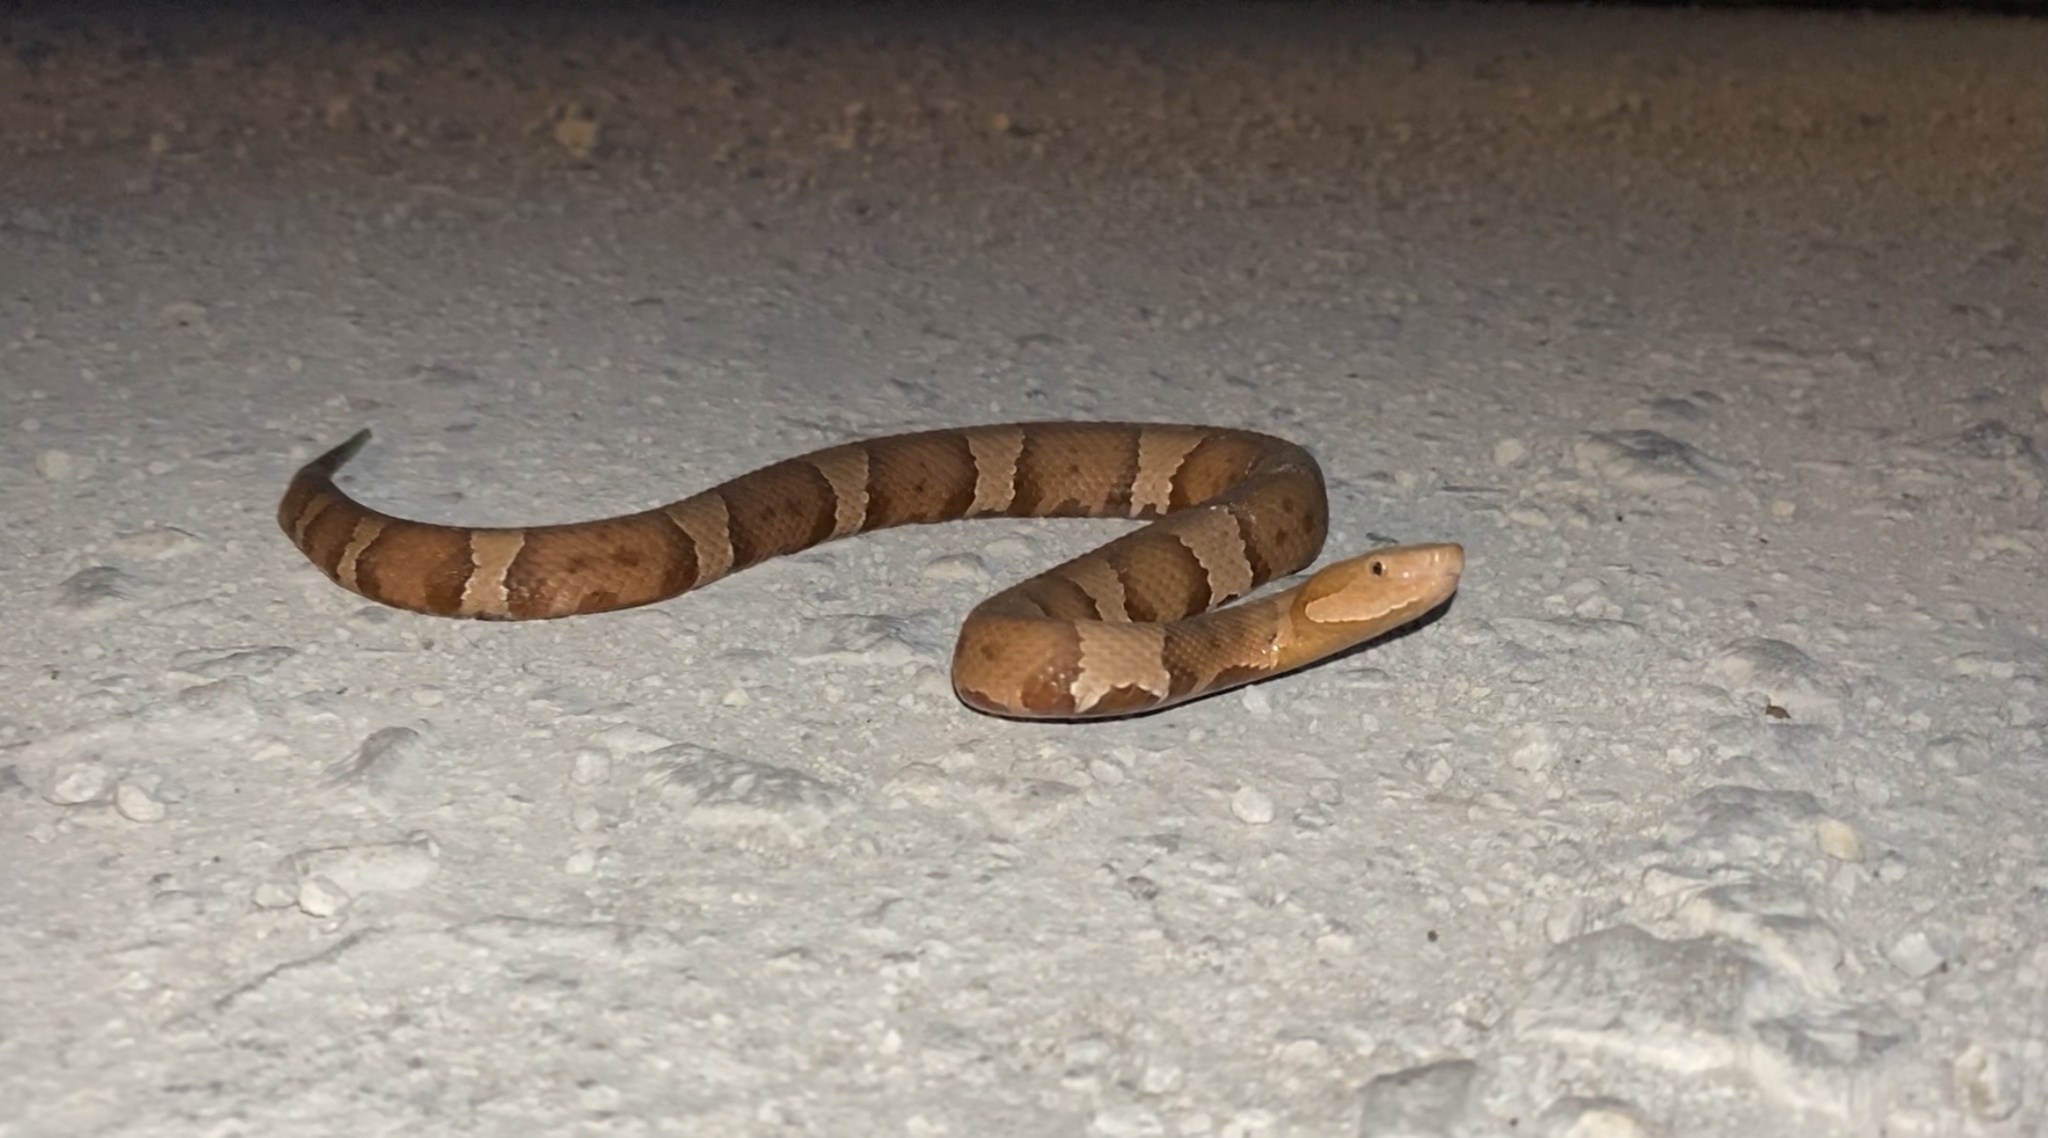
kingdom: Animalia
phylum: Chordata
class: Squamata
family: Viperidae
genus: Agkistrodon
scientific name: Agkistrodon laticinctus
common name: Broad-banded copperhead
